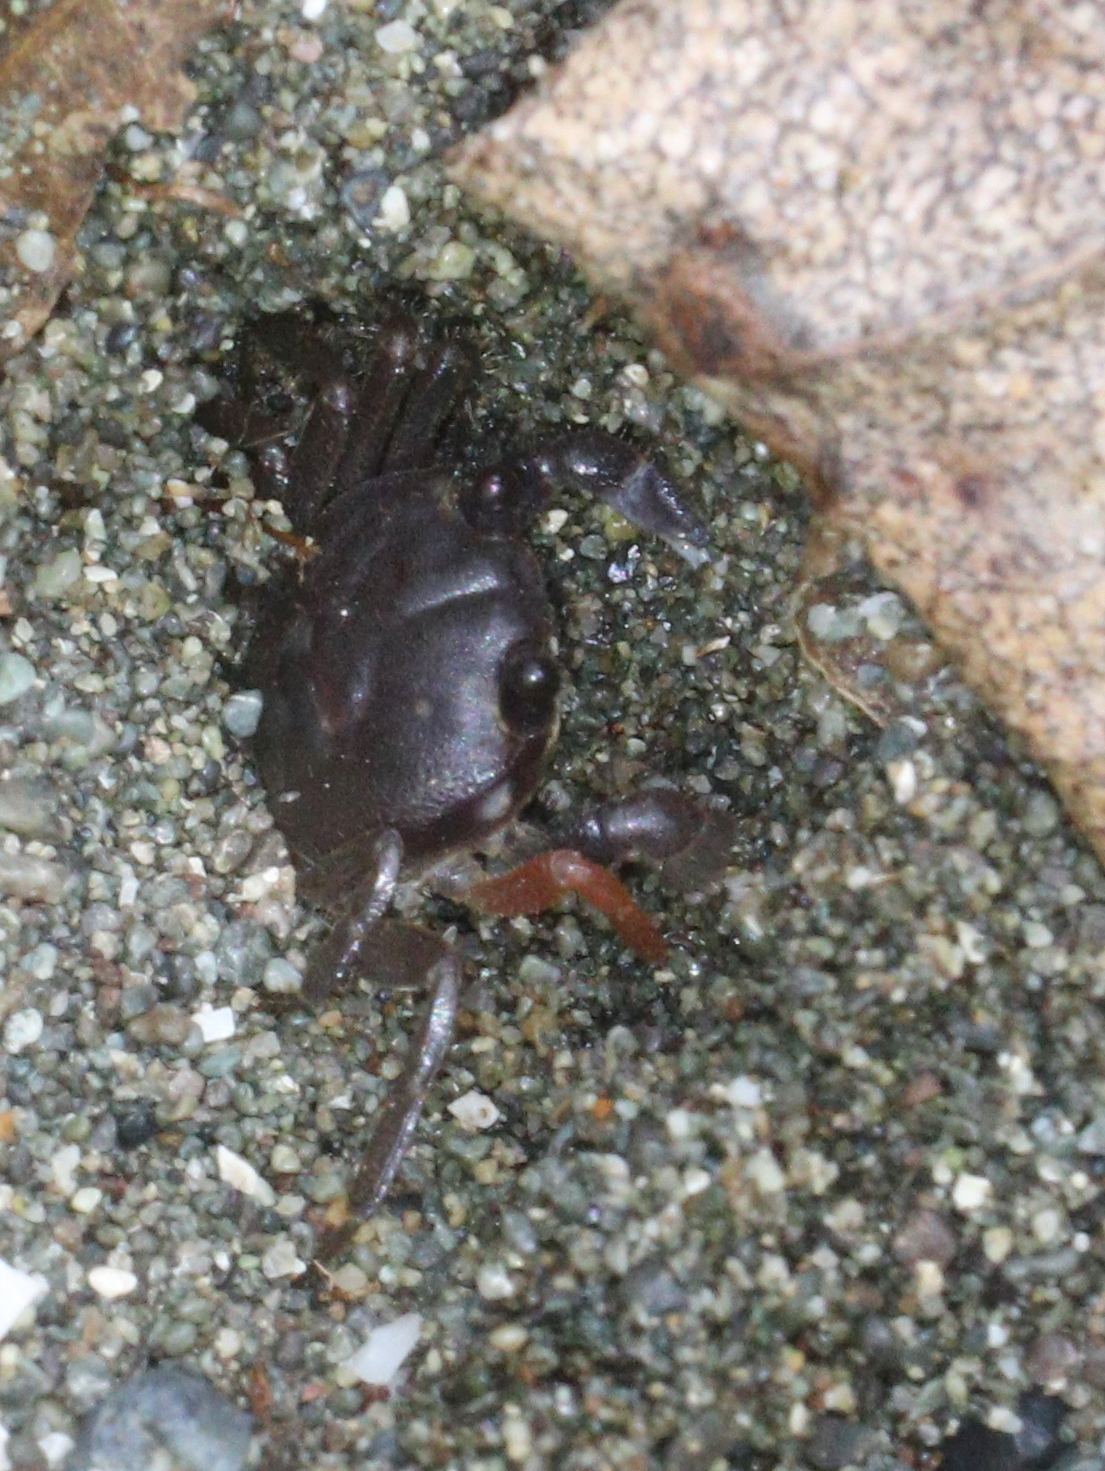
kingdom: Animalia
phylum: Arthropoda
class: Malacostraca
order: Decapoda
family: Gecarcinidae
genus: Gecarcinus
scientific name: Gecarcinus quadratus
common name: Halloween crab
